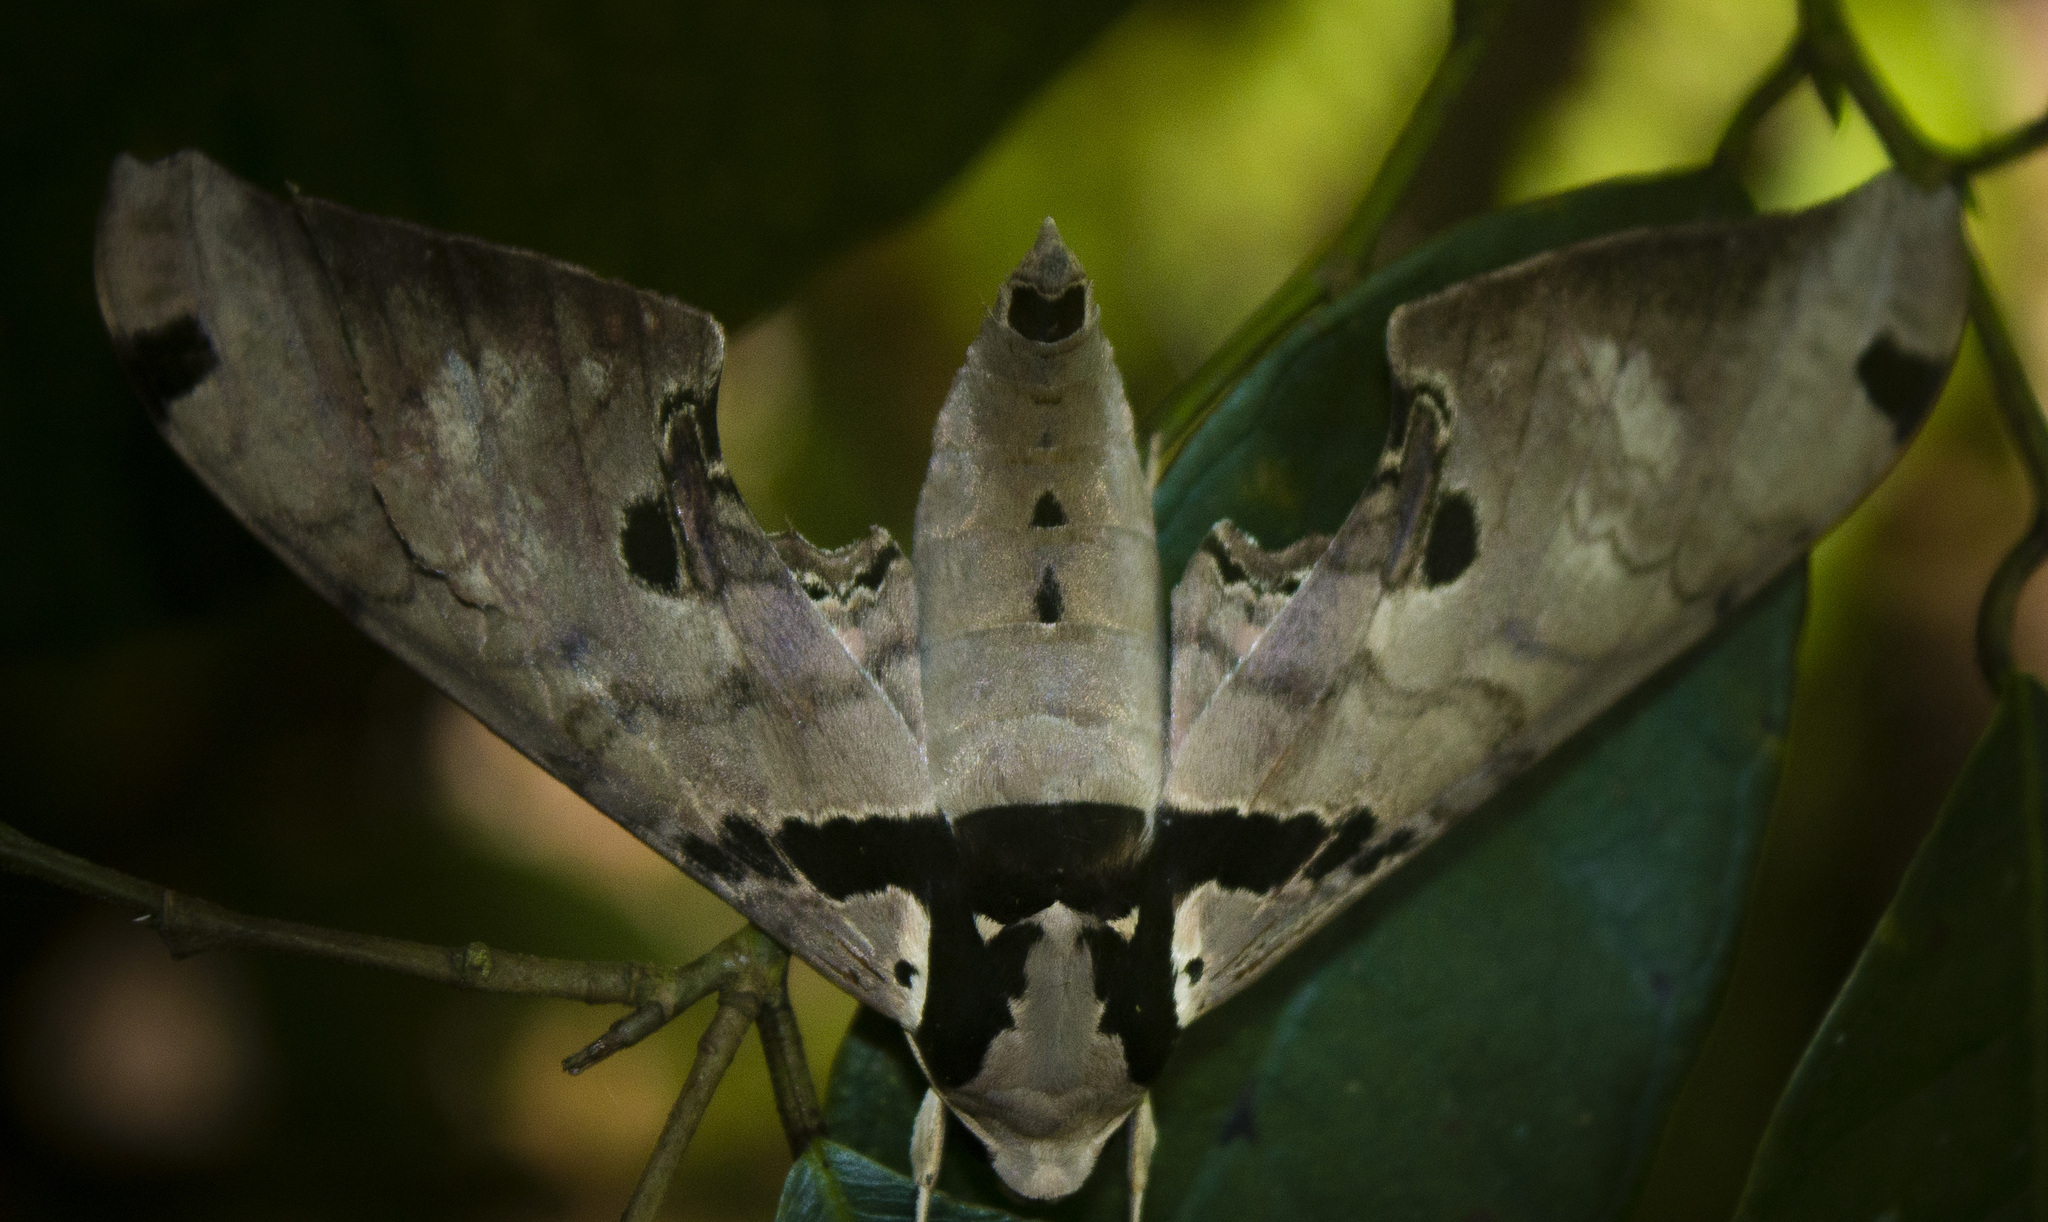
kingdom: Animalia
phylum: Arthropoda
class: Insecta
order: Lepidoptera
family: Sphingidae
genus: Adhemarius
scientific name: Adhemarius gannascus
